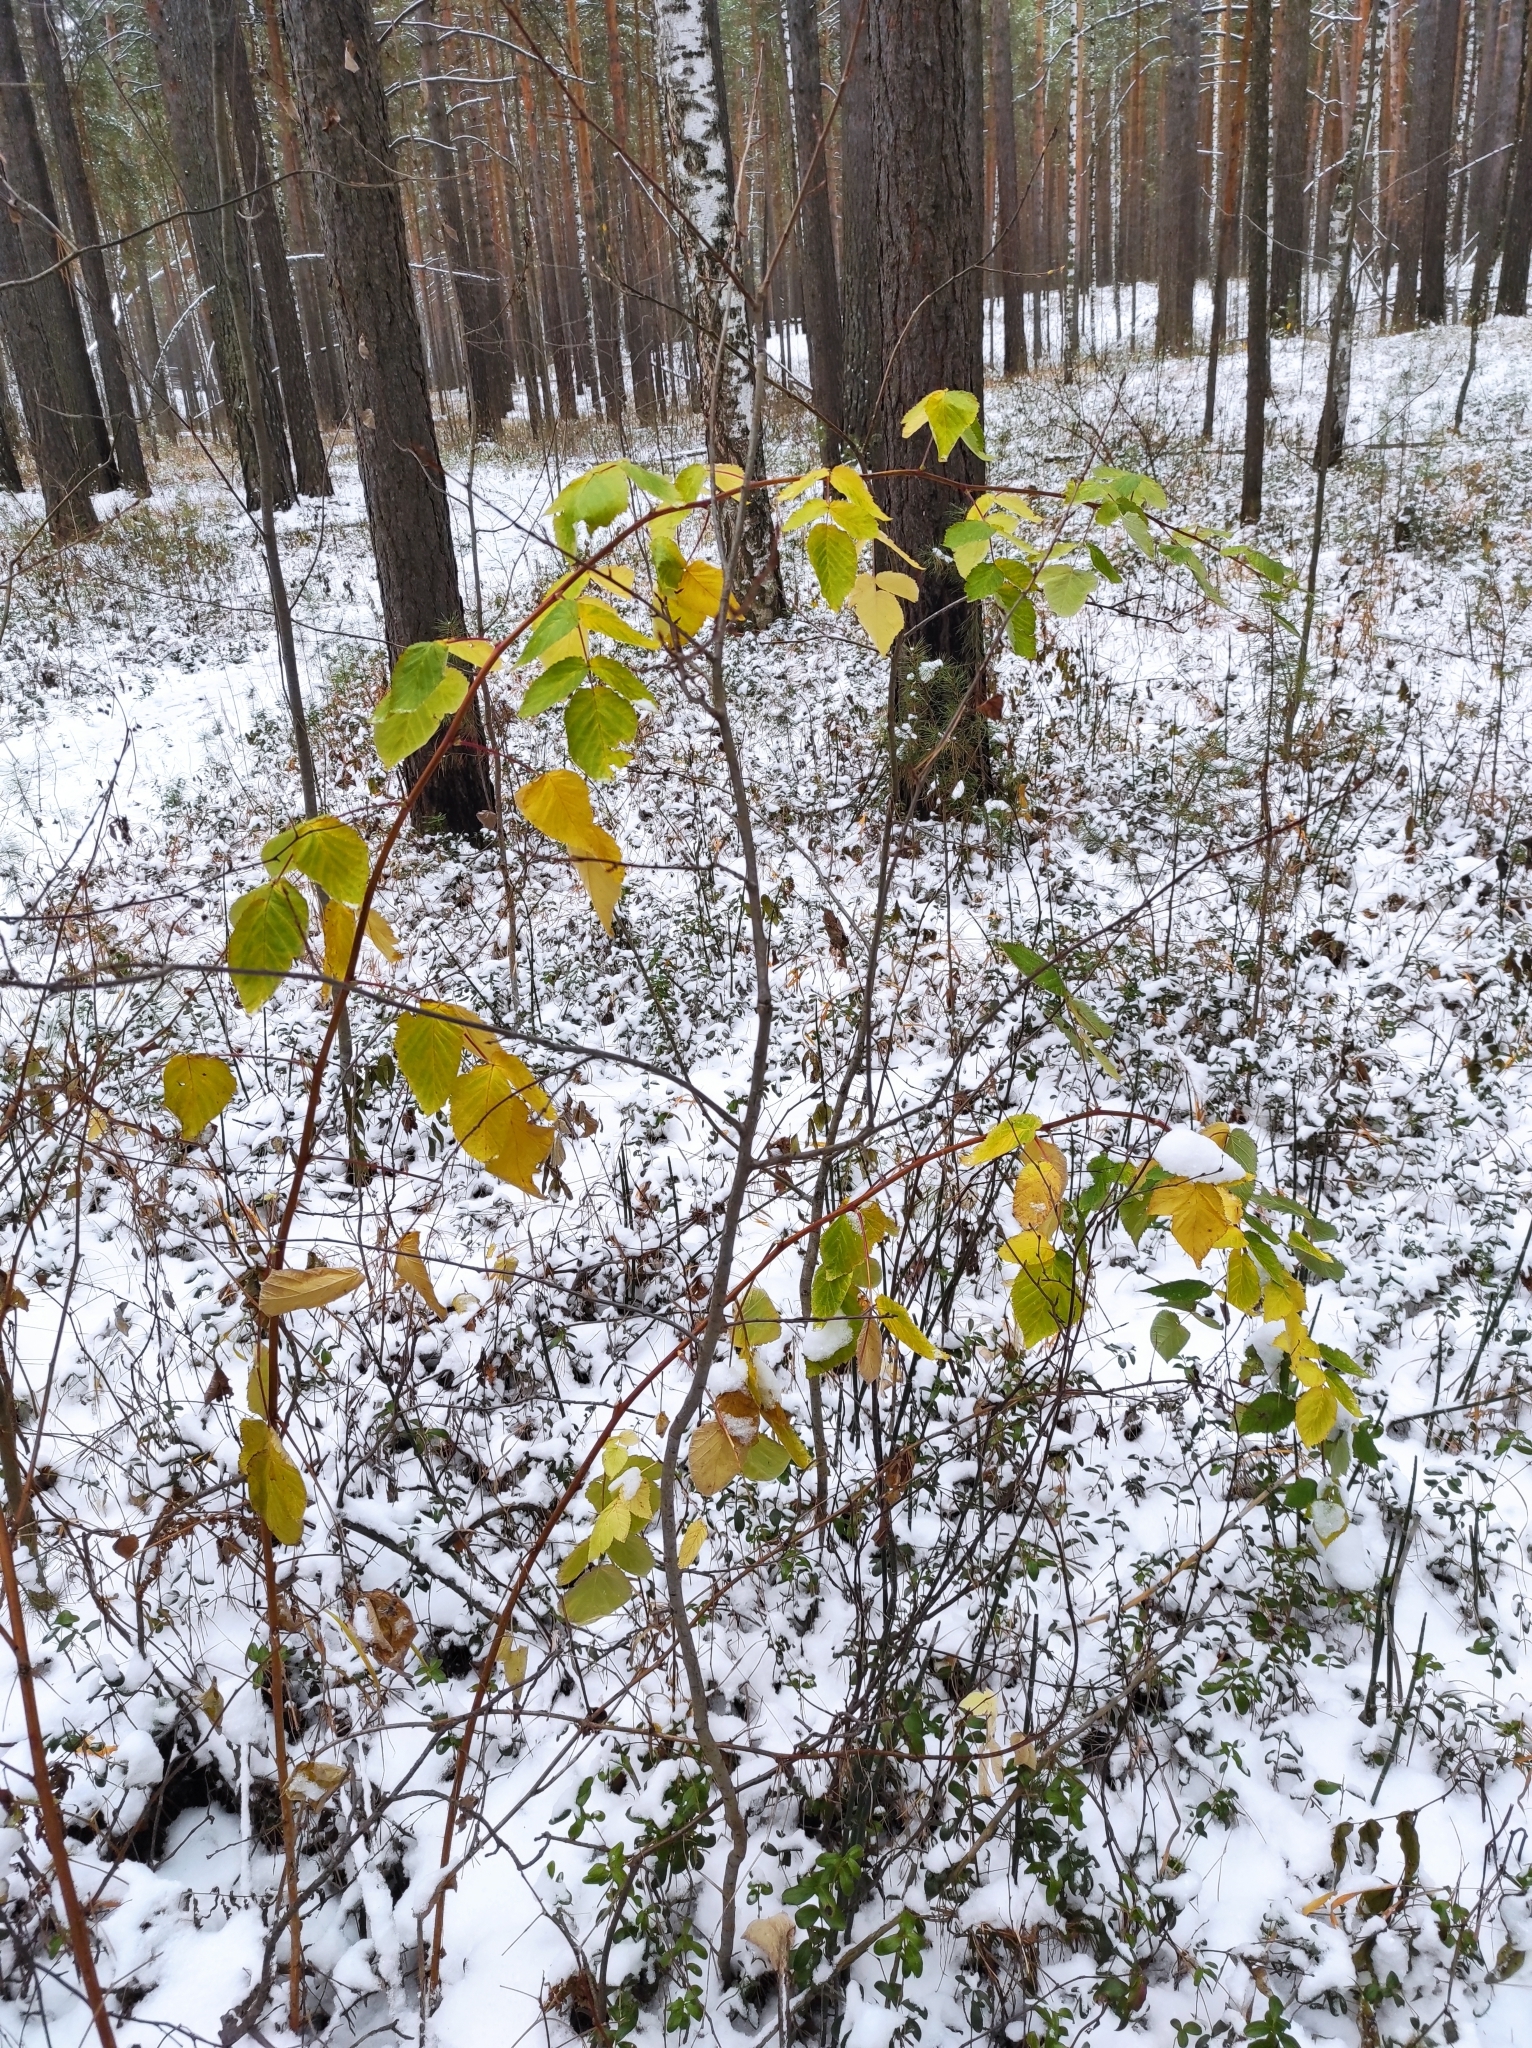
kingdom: Plantae
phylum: Tracheophyta
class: Magnoliopsida
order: Rosales
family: Rosaceae
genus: Rubus
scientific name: Rubus idaeus
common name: Raspberry
